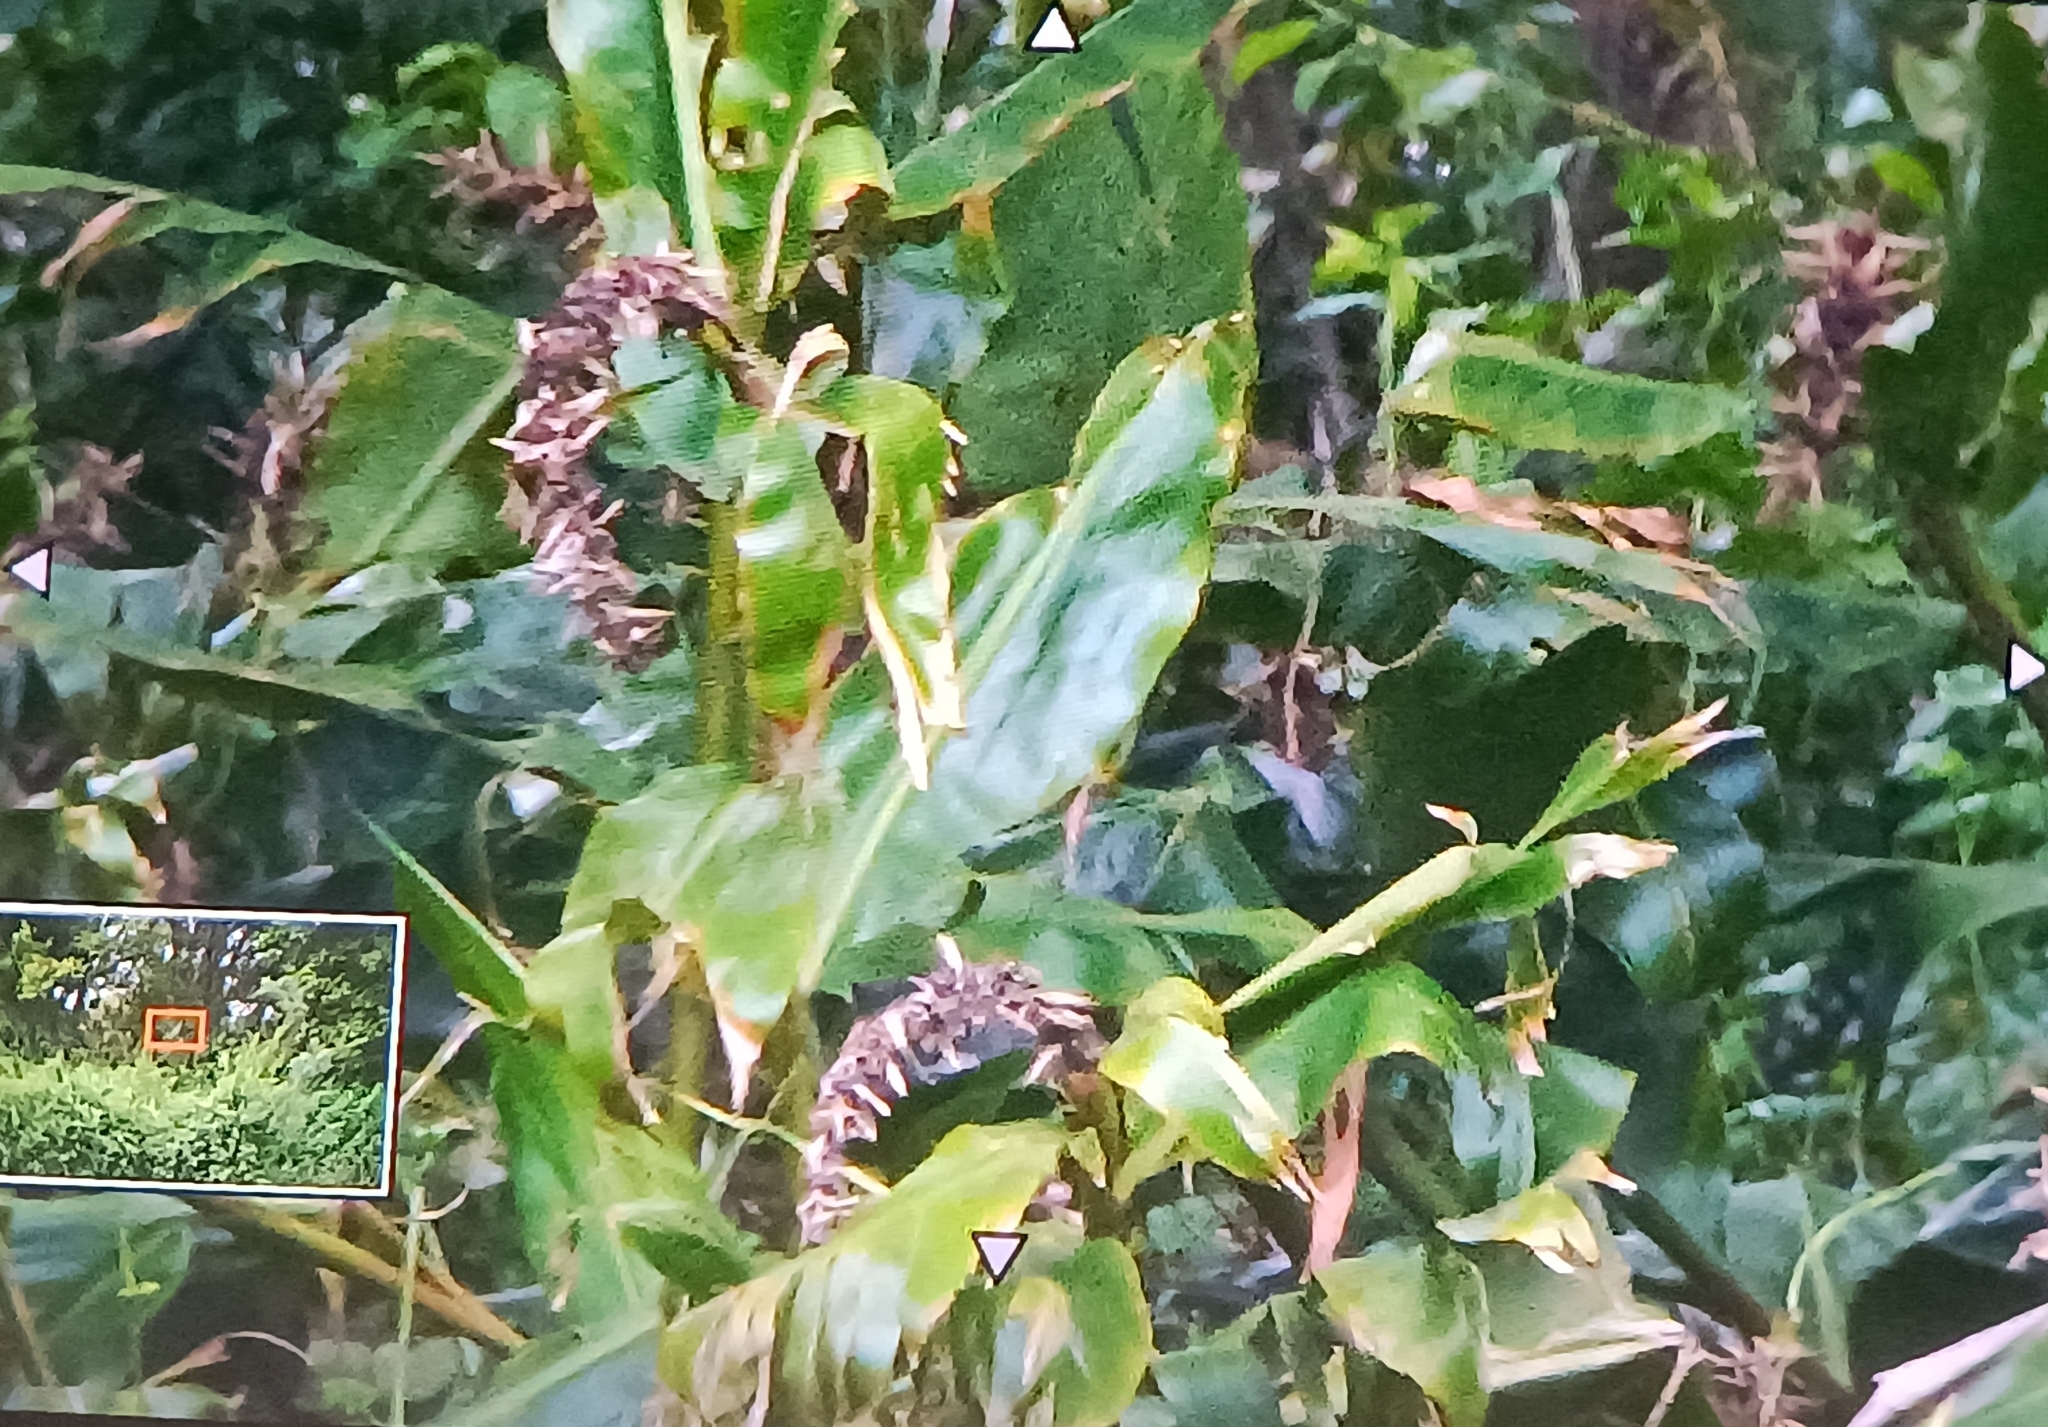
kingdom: Plantae
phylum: Tracheophyta
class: Liliopsida
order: Zingiberales
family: Zingiberaceae
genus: Hedychium
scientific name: Hedychium gardnerianum
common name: Himalayan ginger
